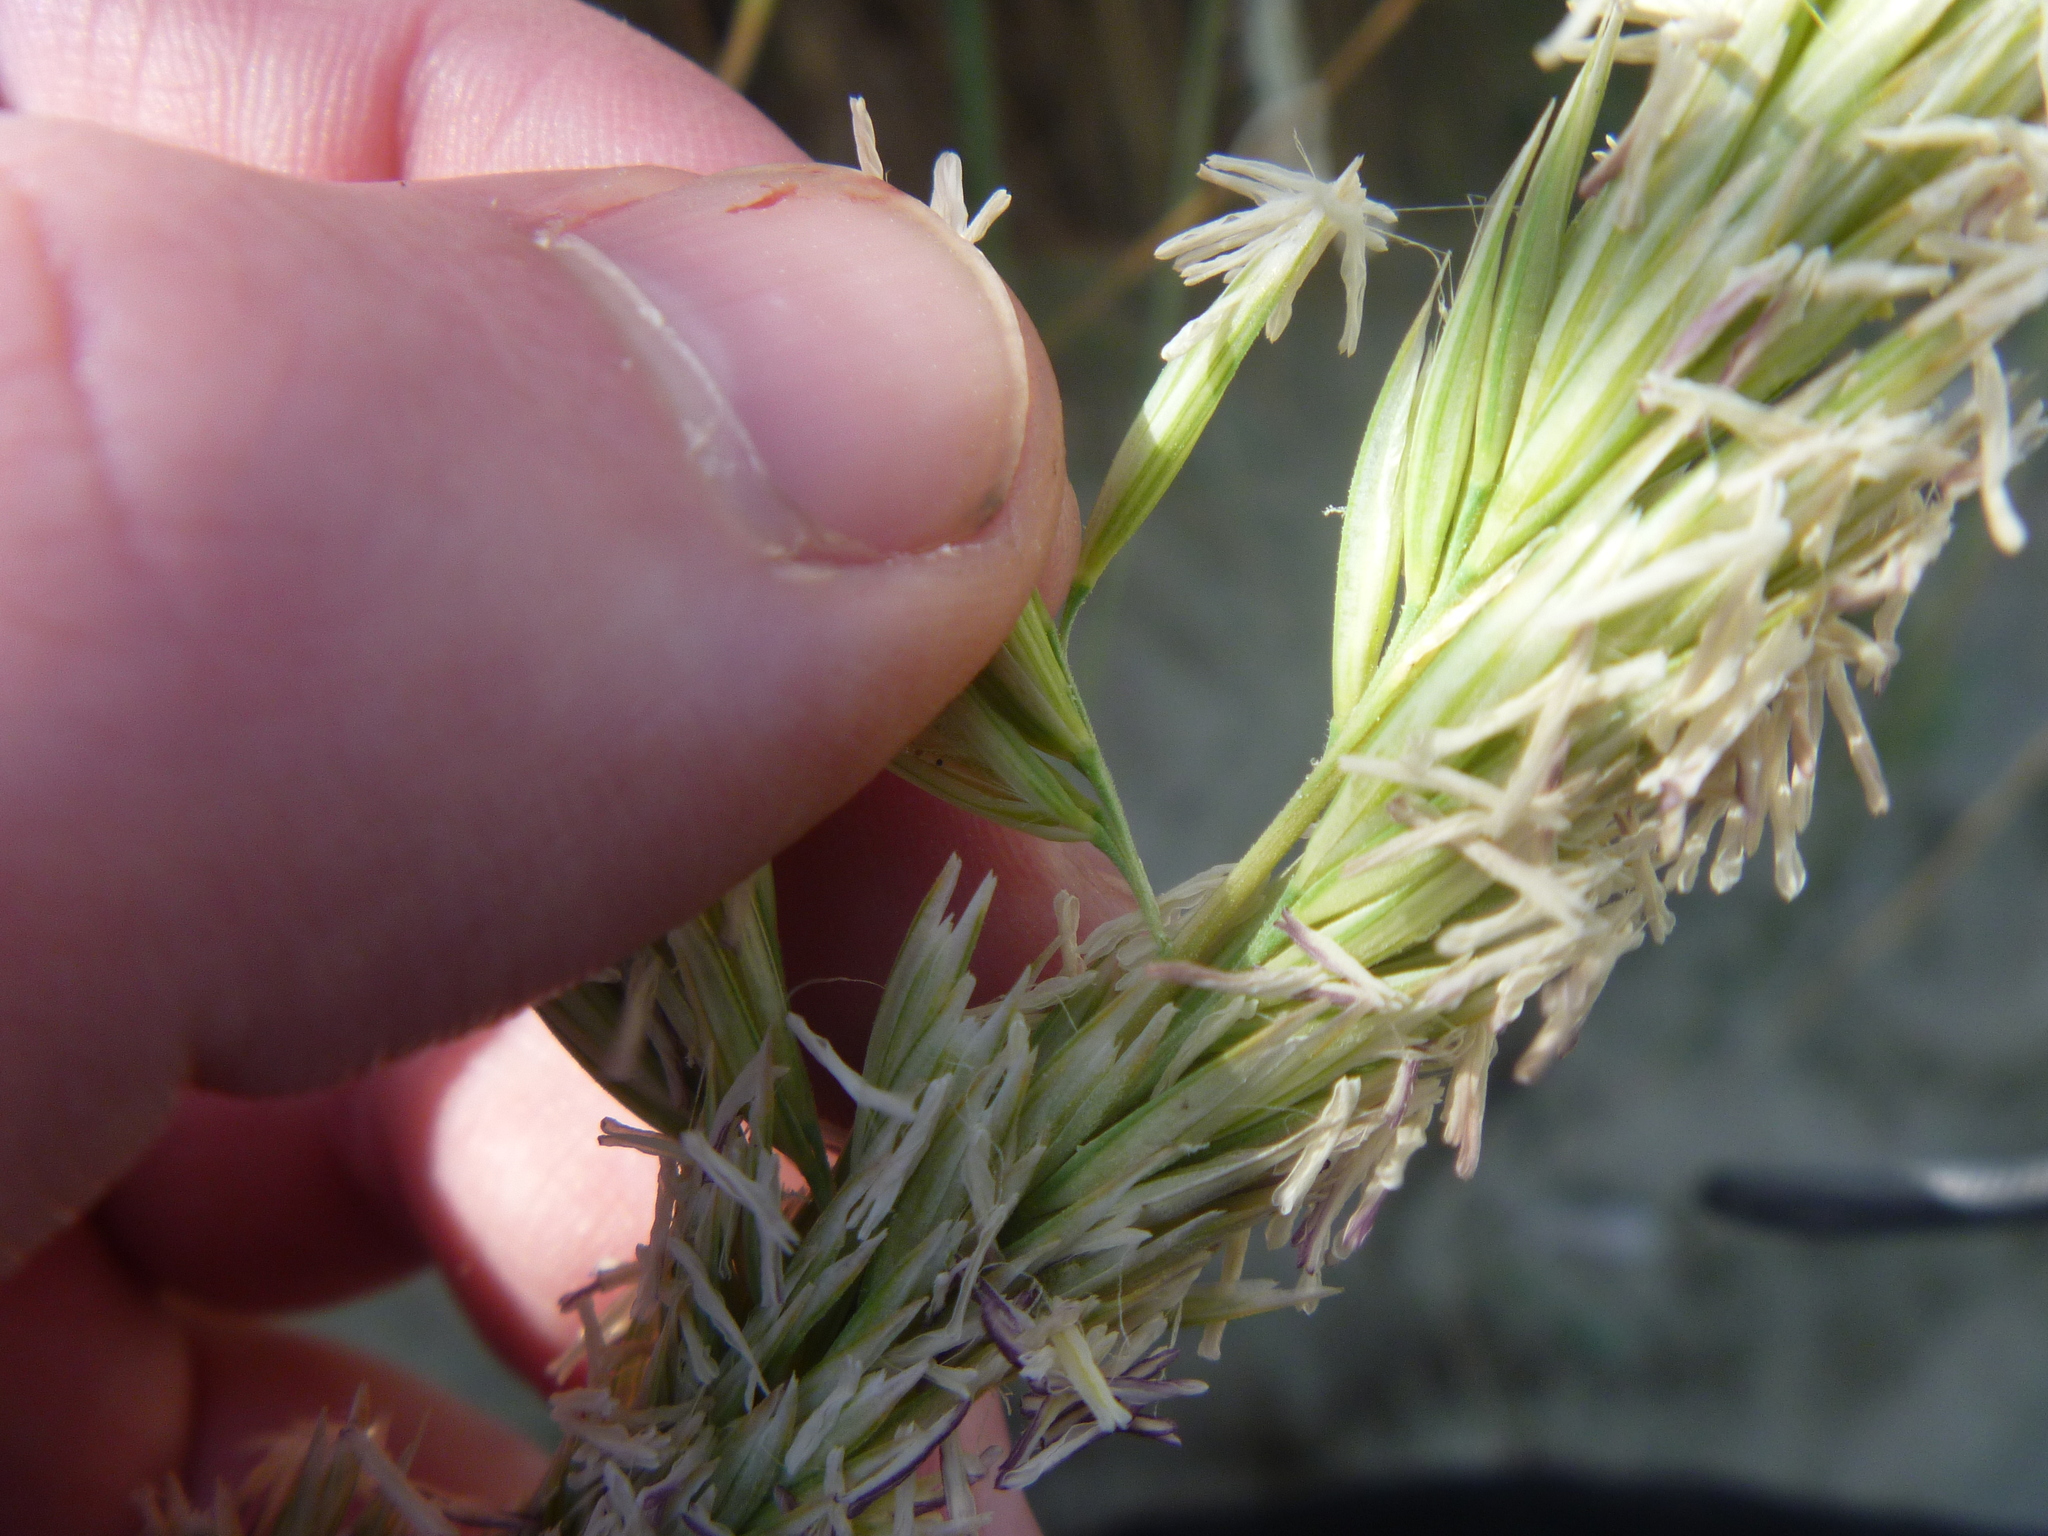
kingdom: Plantae
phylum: Tracheophyta
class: Liliopsida
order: Poales
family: Poaceae
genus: Calamagrostis
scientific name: Calamagrostis arenaria
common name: European beachgrass
